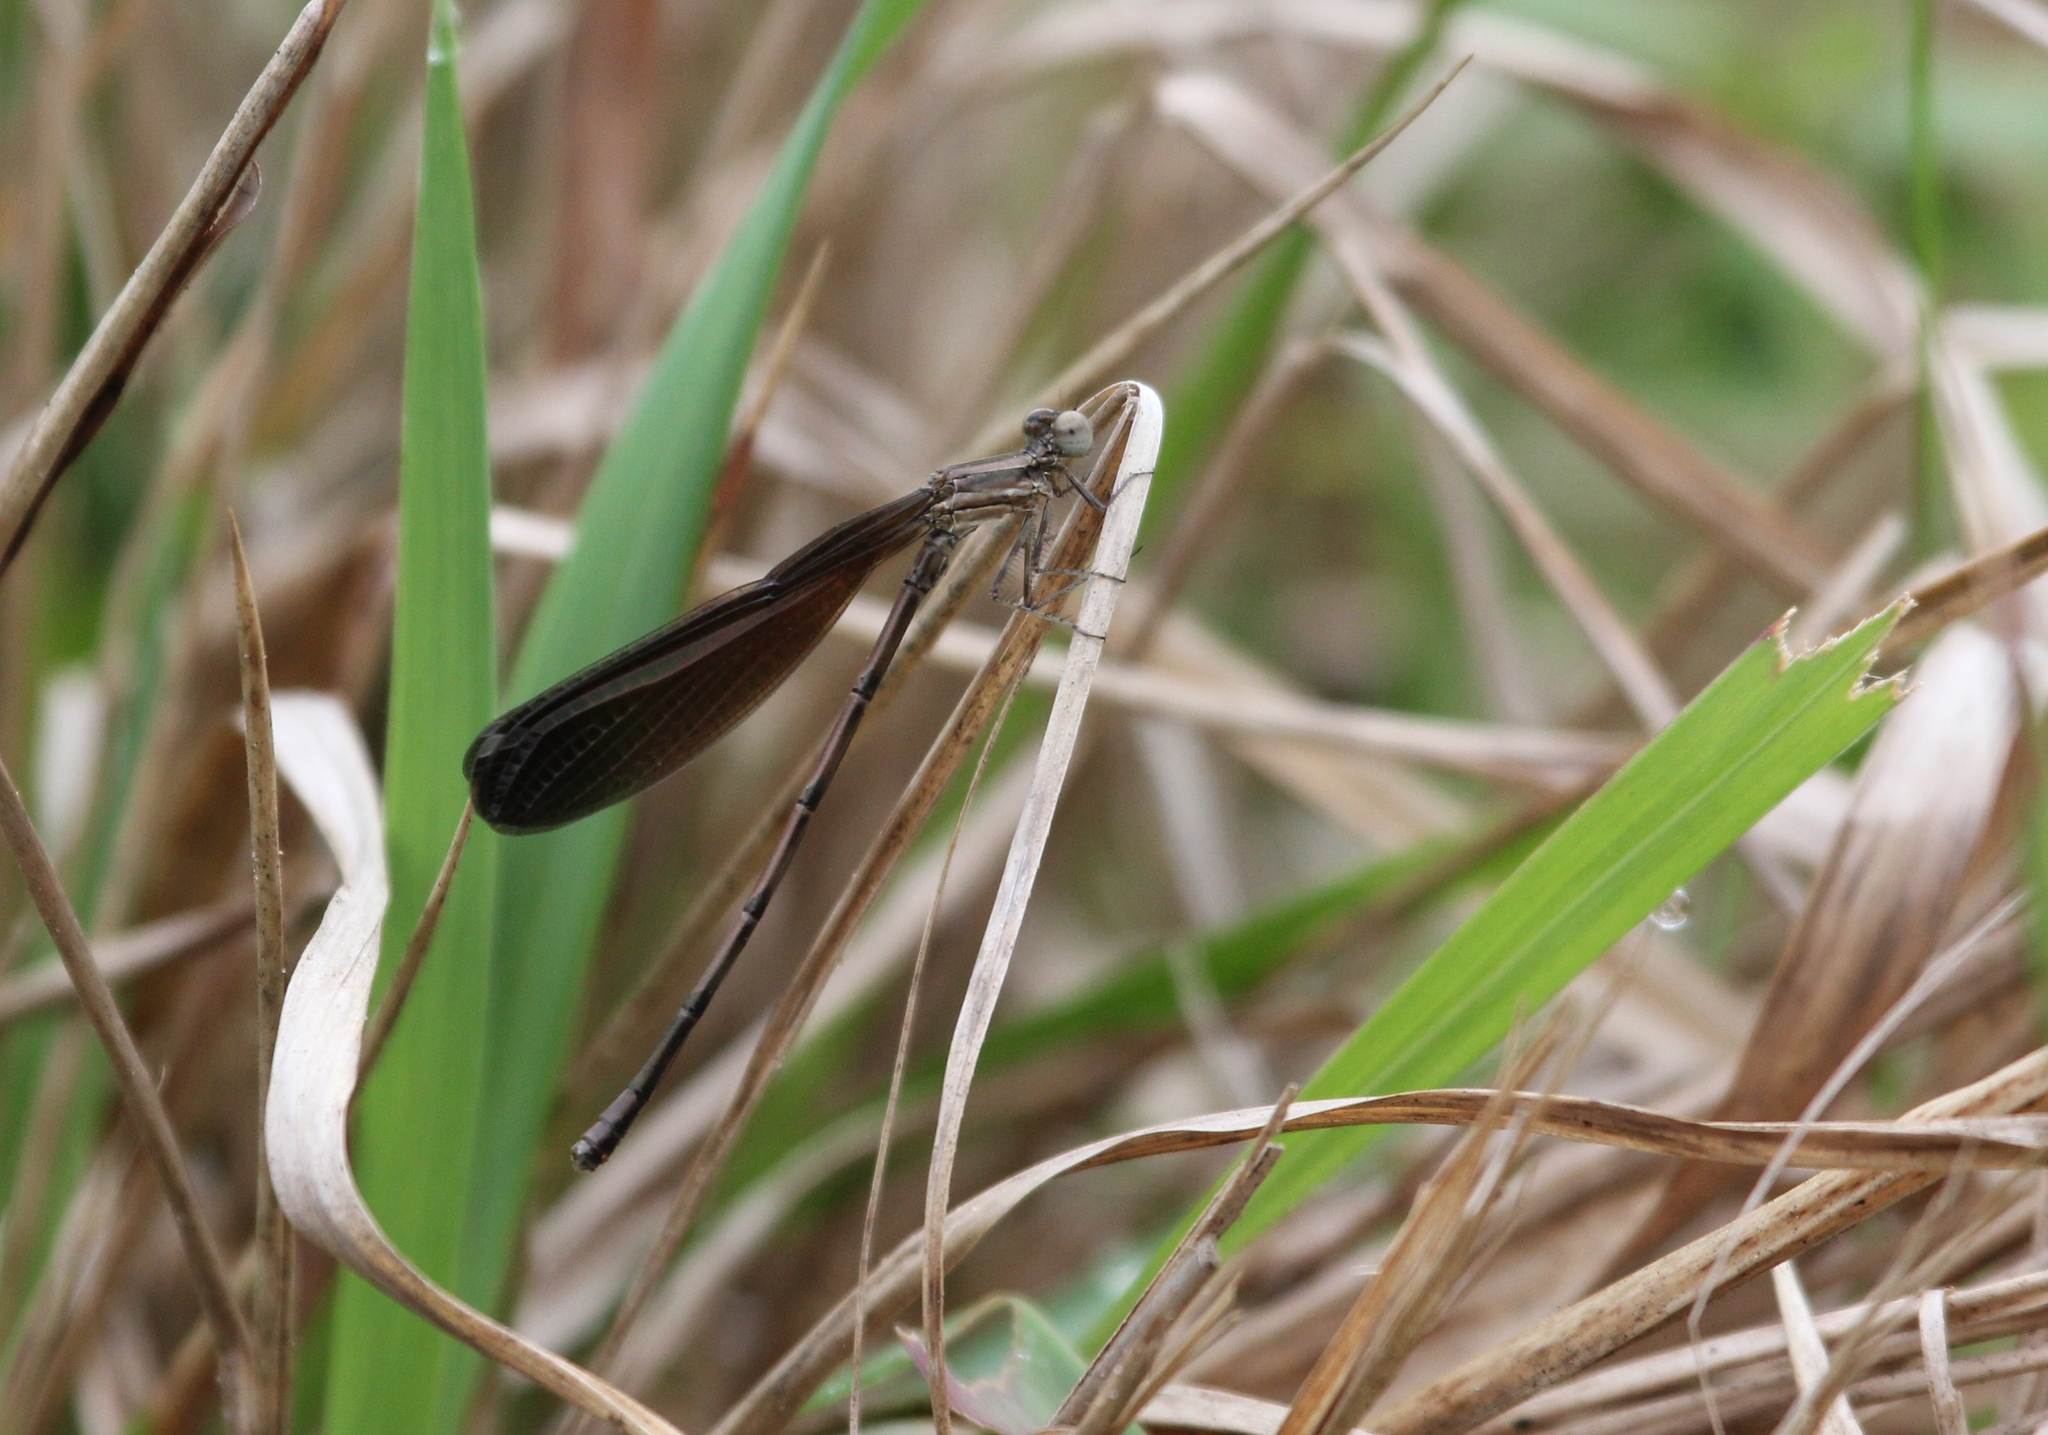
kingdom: Animalia
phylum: Arthropoda
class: Insecta
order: Odonata
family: Coenagrionidae
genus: Argia
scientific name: Argia fumipennis
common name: Variable dancer
